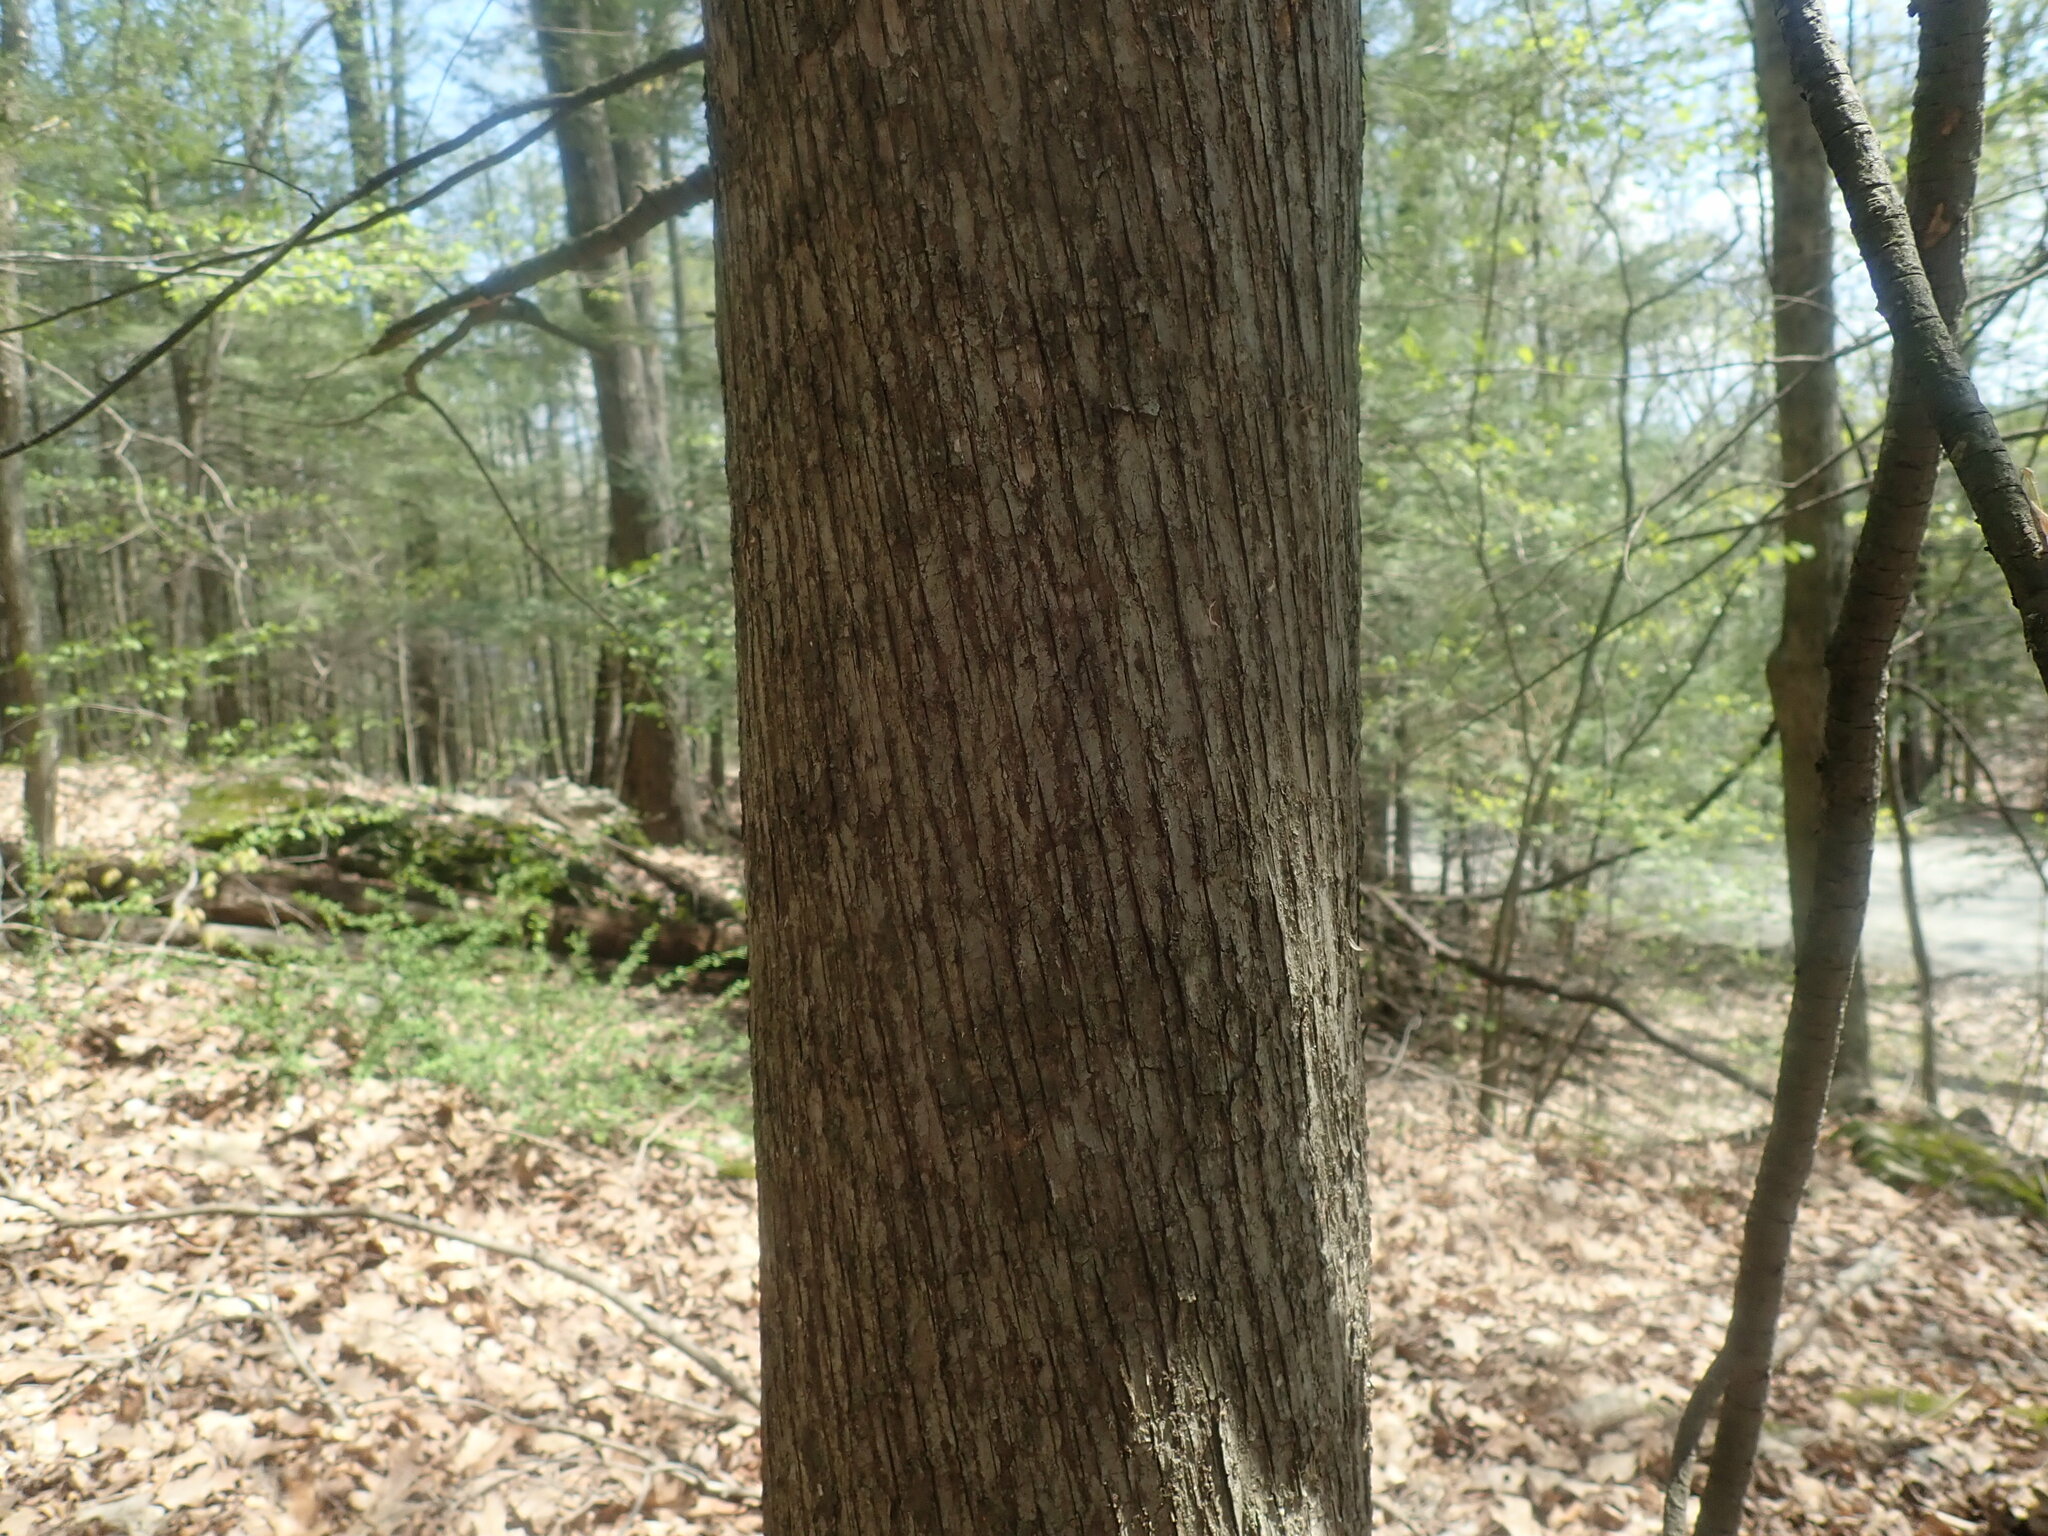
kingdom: Plantae
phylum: Tracheophyta
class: Magnoliopsida
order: Fagales
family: Betulaceae
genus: Ostrya
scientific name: Ostrya virginiana
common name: Ironwood
